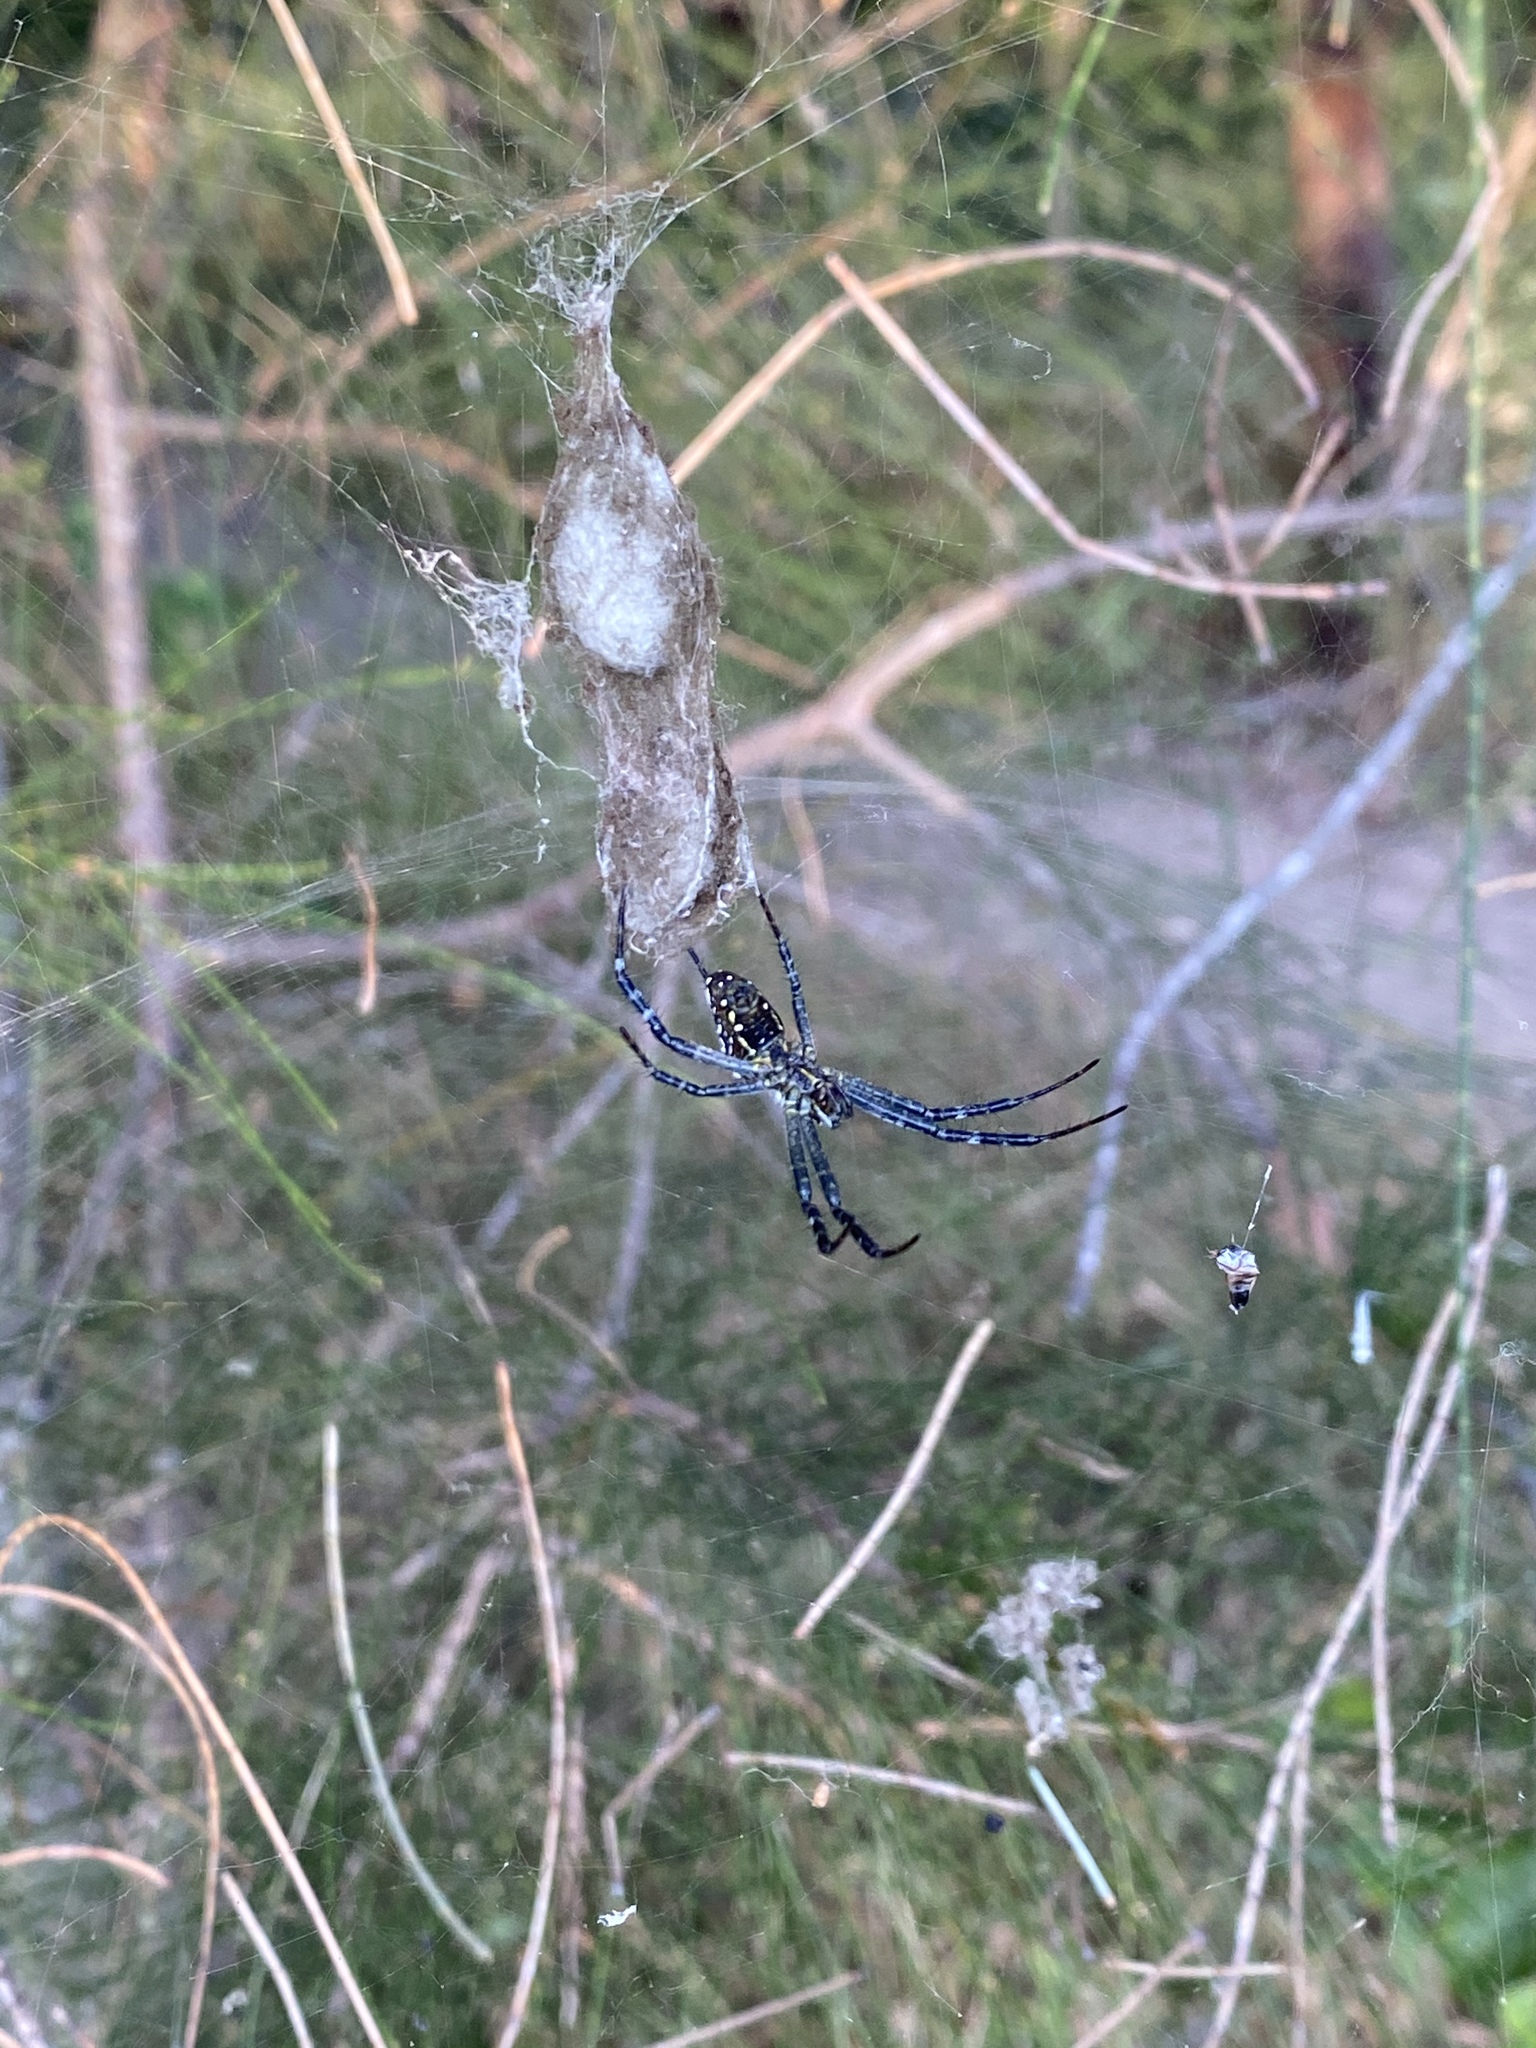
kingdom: Chromista
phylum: Ochrophyta
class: Dictyochophyceae
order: Pedinellales
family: Cyrtophoraceae
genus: Cyrtophora
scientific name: Cyrtophora moluccensis
